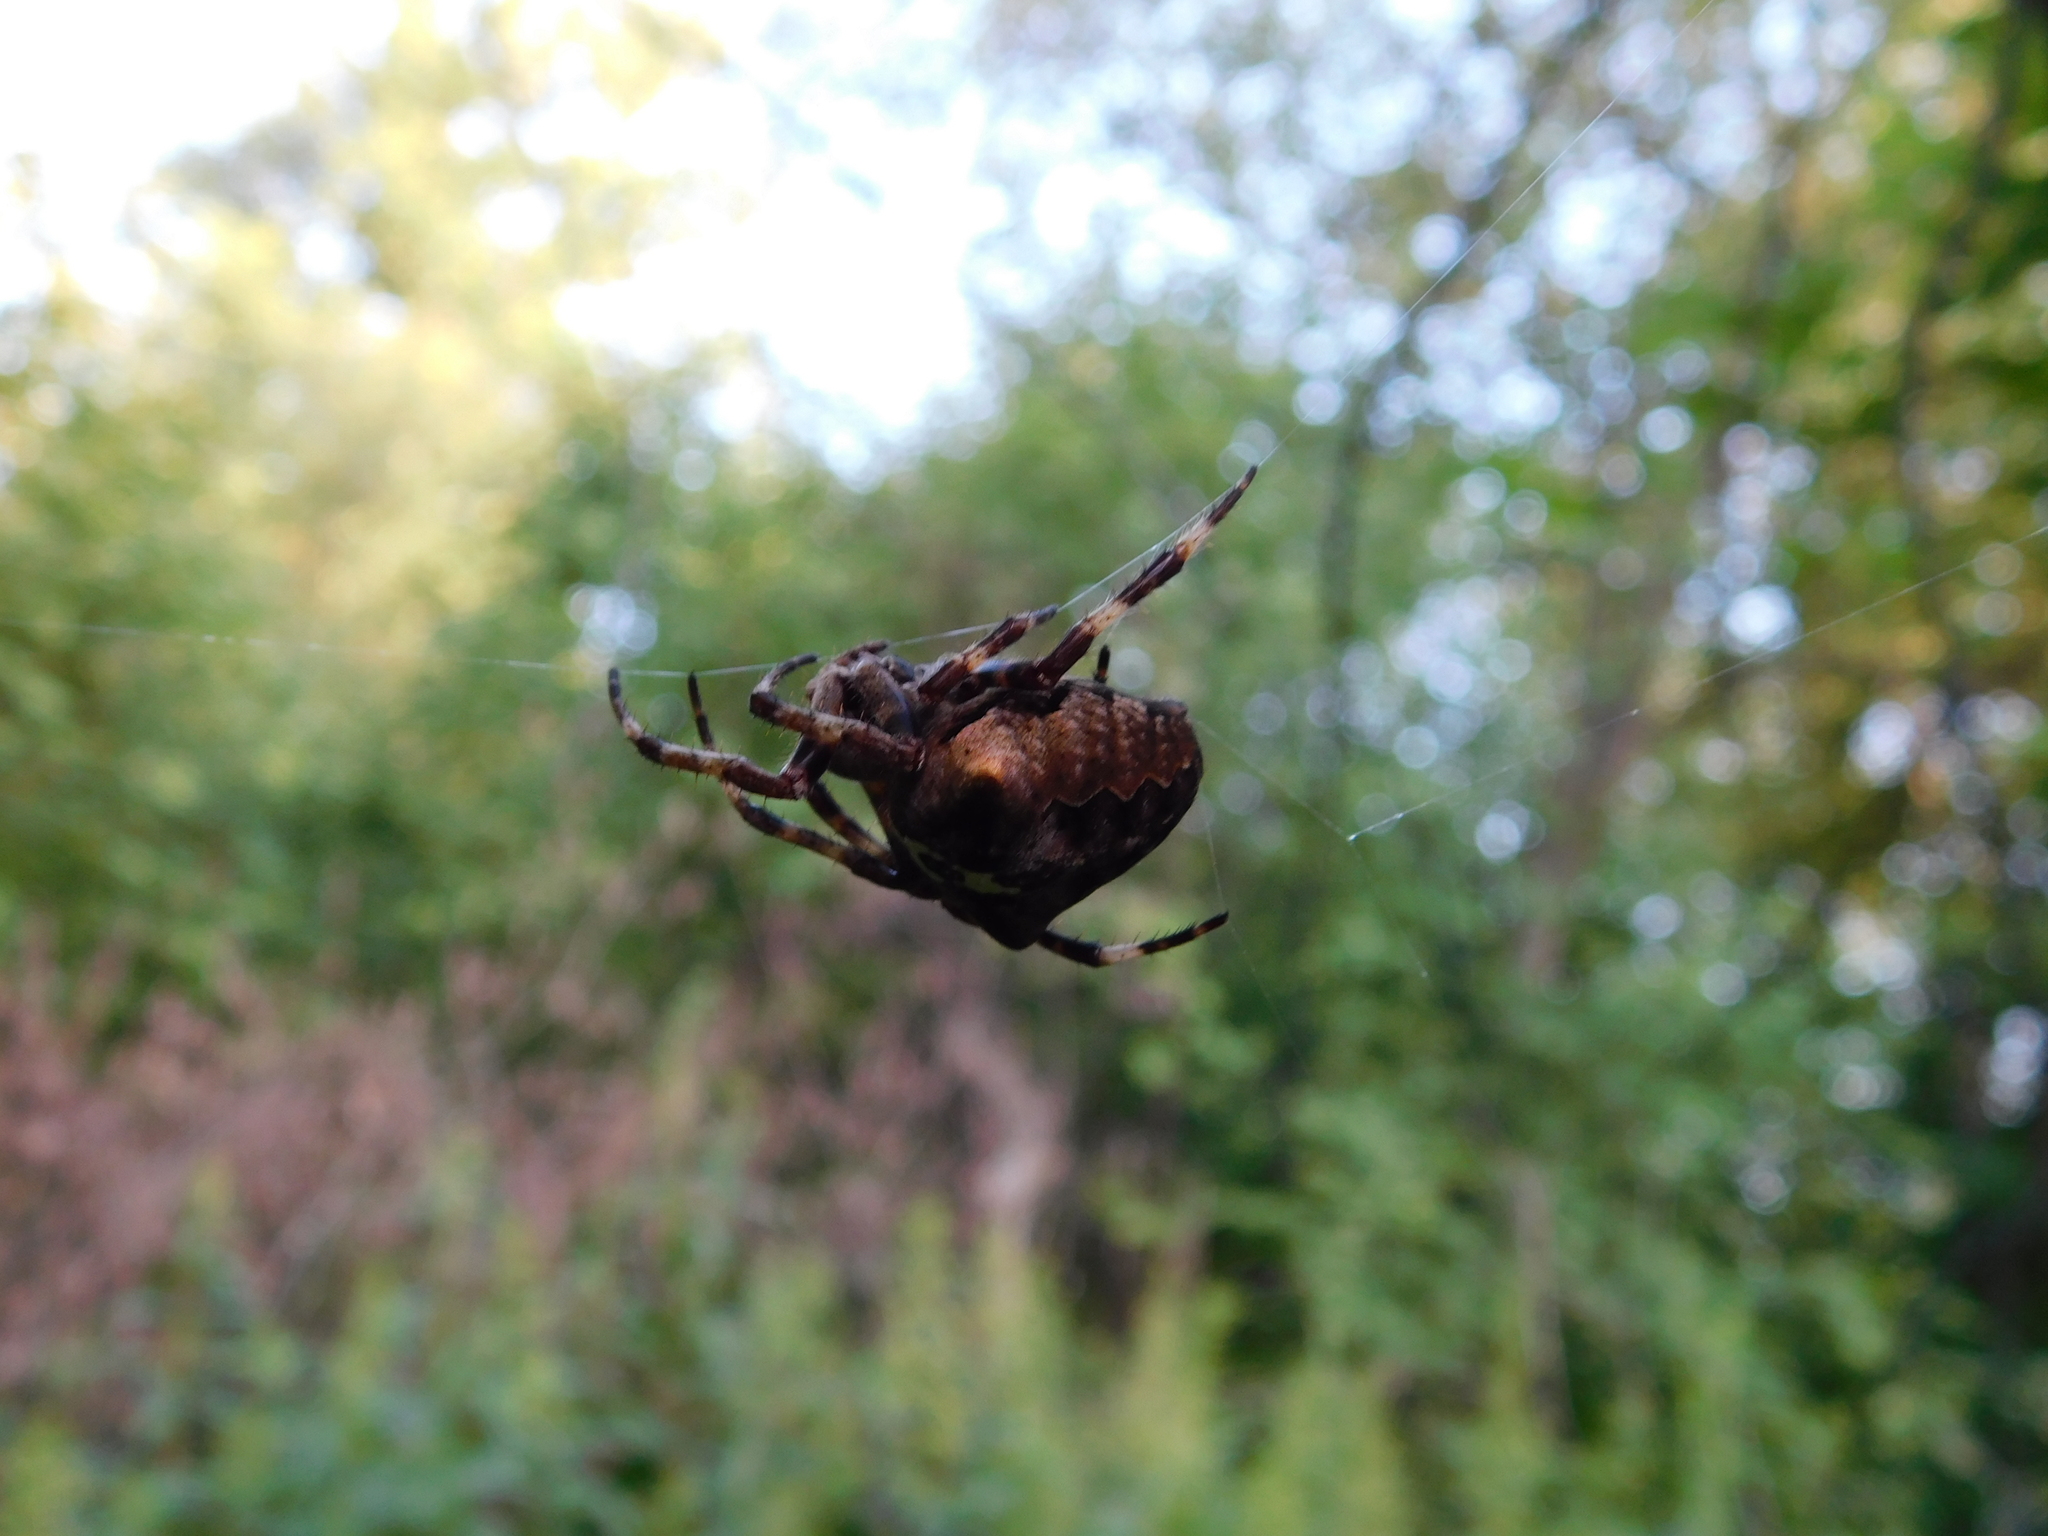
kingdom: Animalia
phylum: Arthropoda
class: Arachnida
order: Araneae
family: Araneidae
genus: Araneus
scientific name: Araneus angulatus
